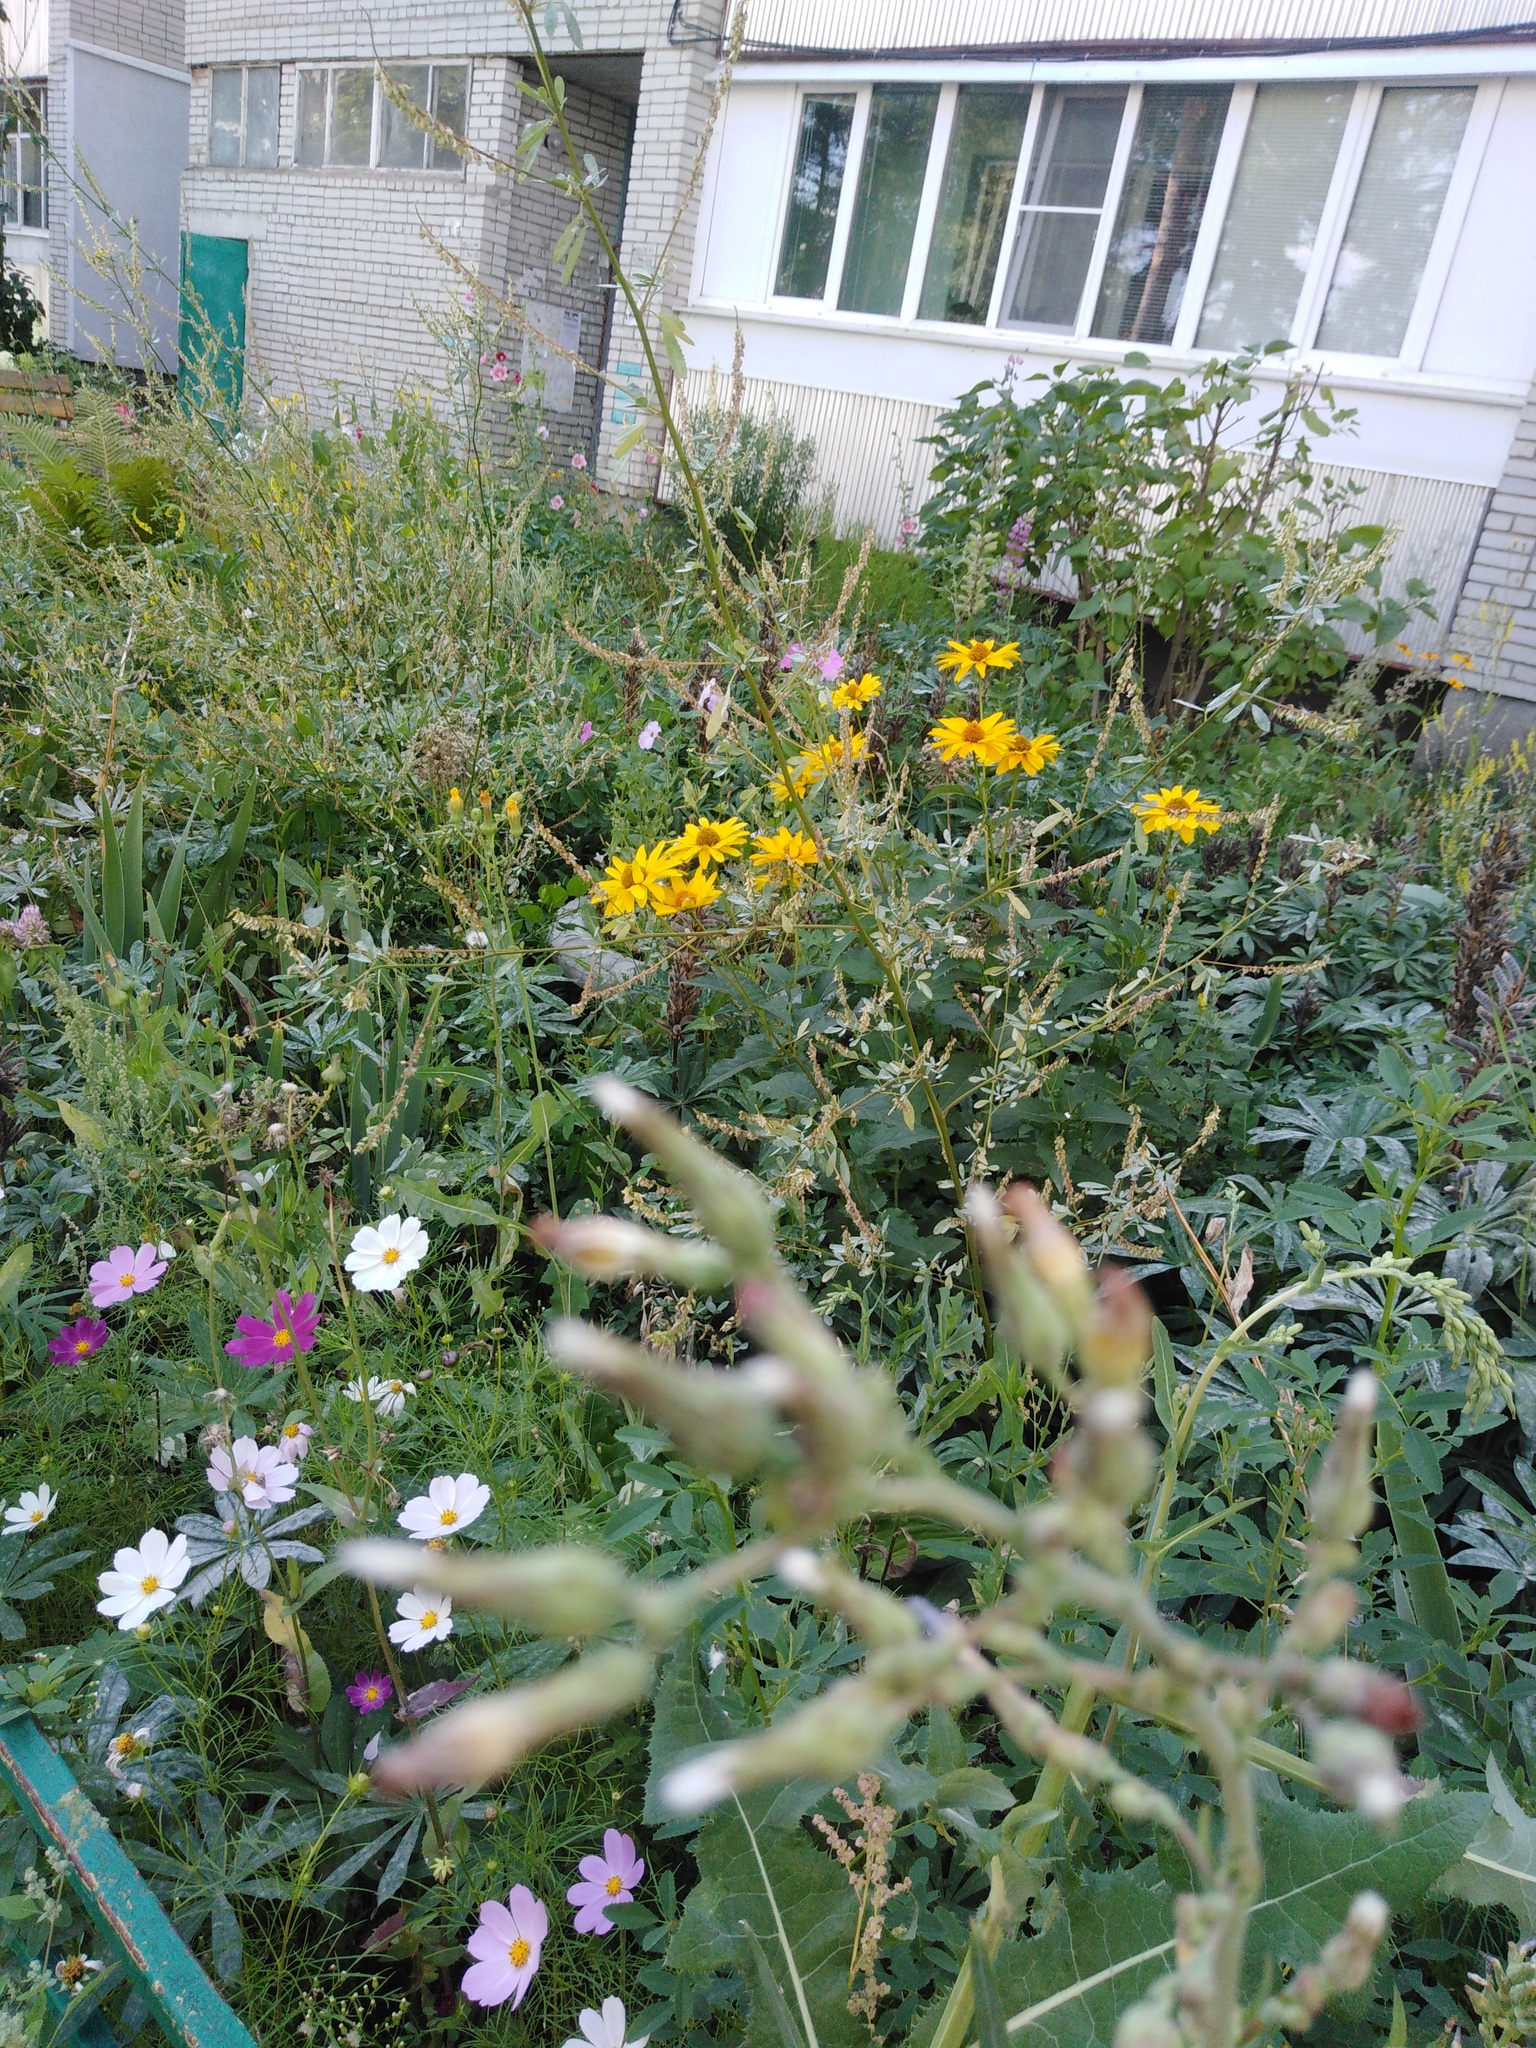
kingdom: Plantae
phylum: Tracheophyta
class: Magnoliopsida
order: Asterales
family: Asteraceae
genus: Lactuca
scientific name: Lactuca serriola
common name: Prickly lettuce
